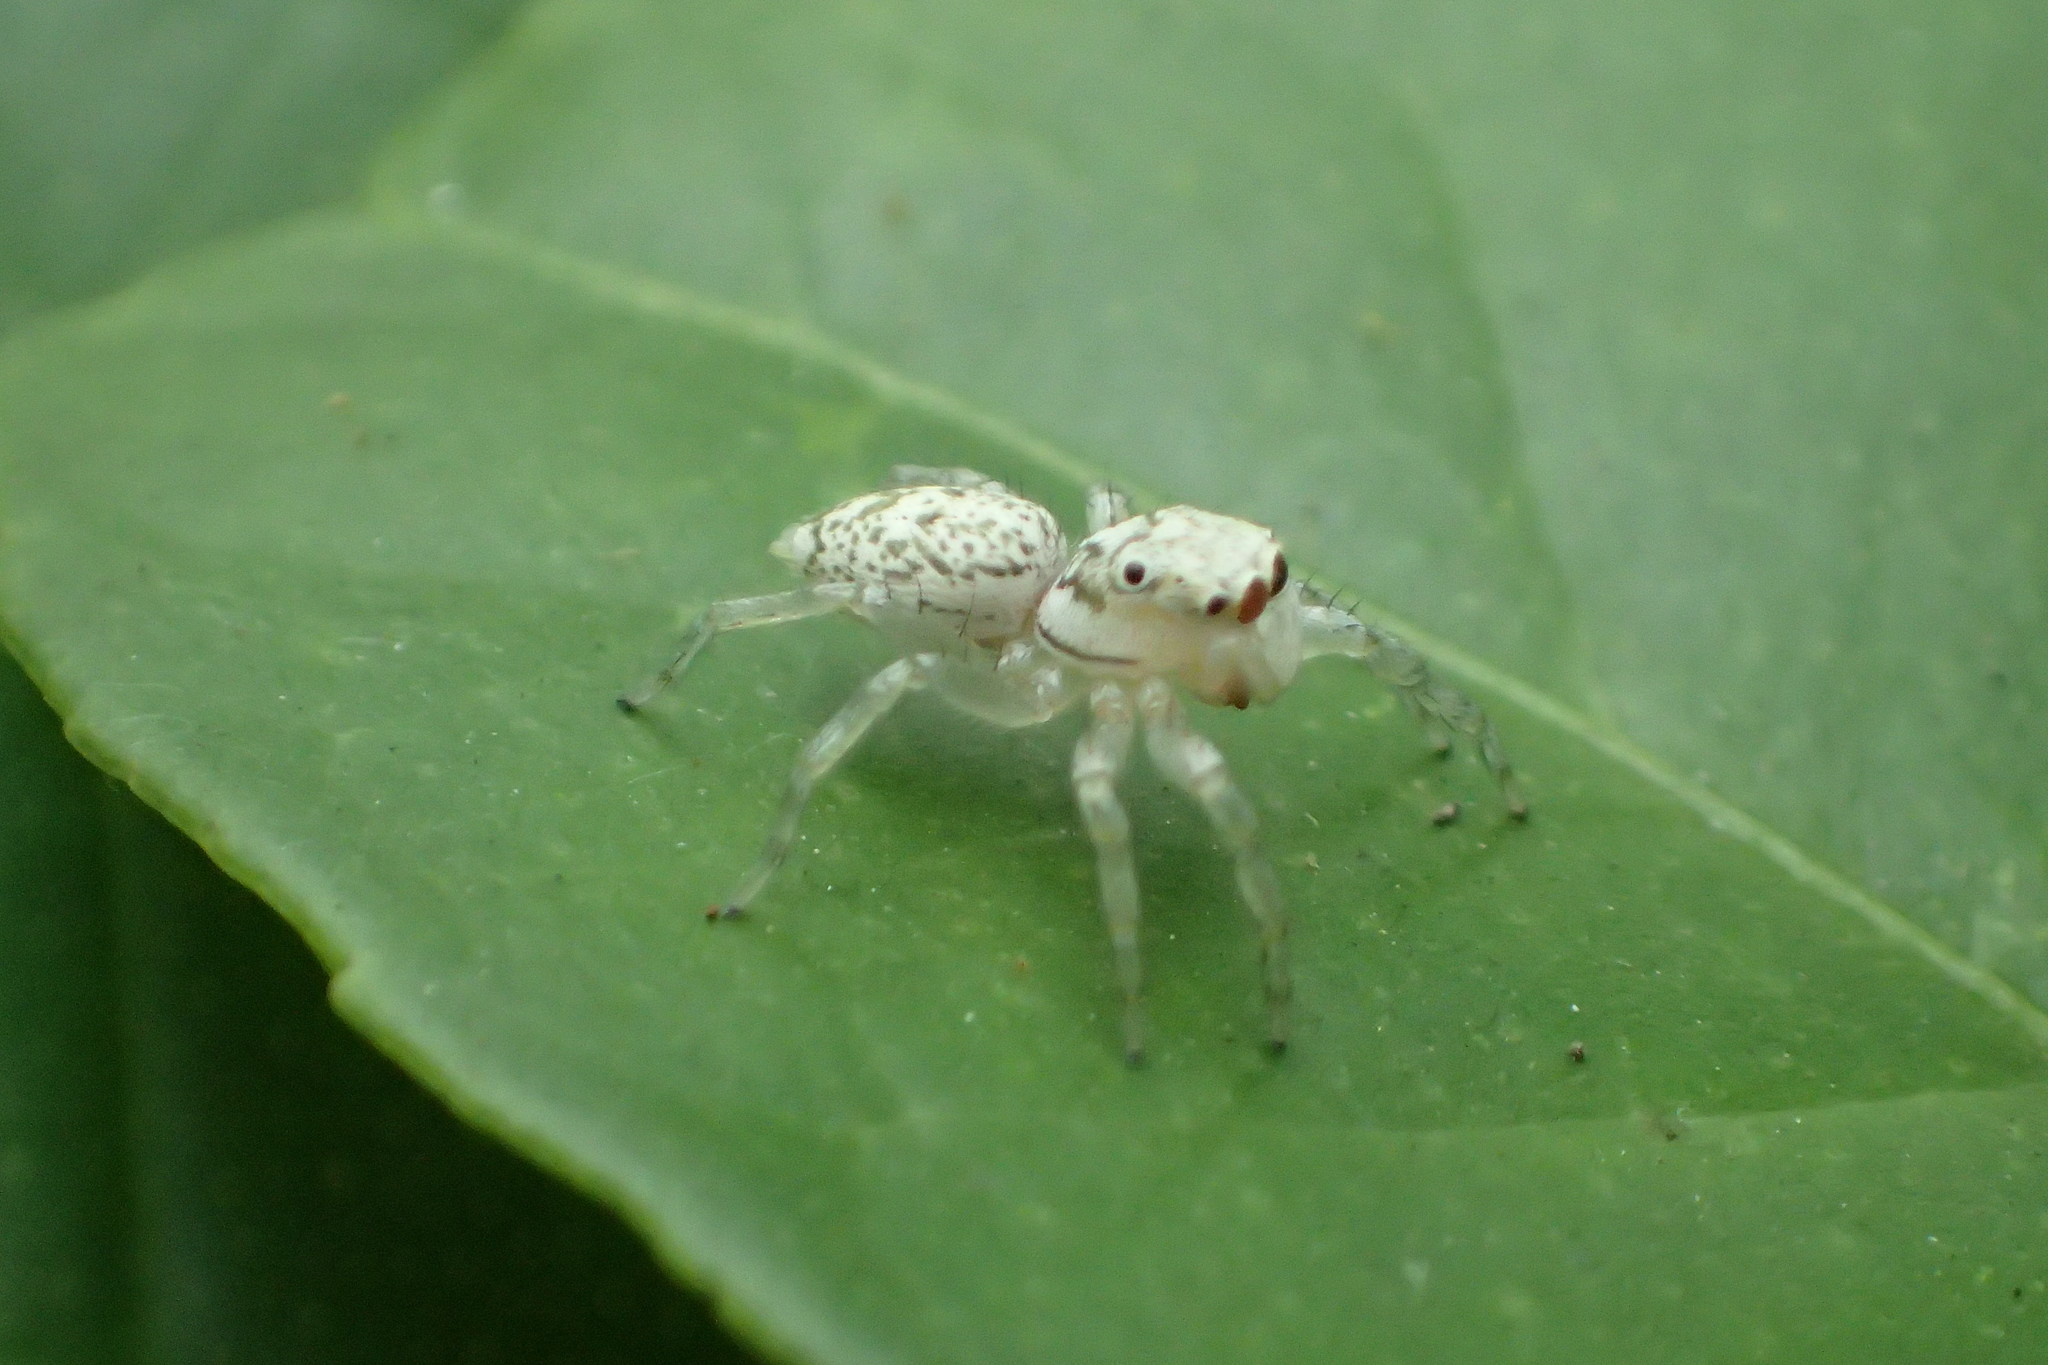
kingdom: Animalia
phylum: Arthropoda
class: Arachnida
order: Araneae
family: Salticidae
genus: Phintelloides
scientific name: Phintelloides versicolor
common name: Jumping spider
